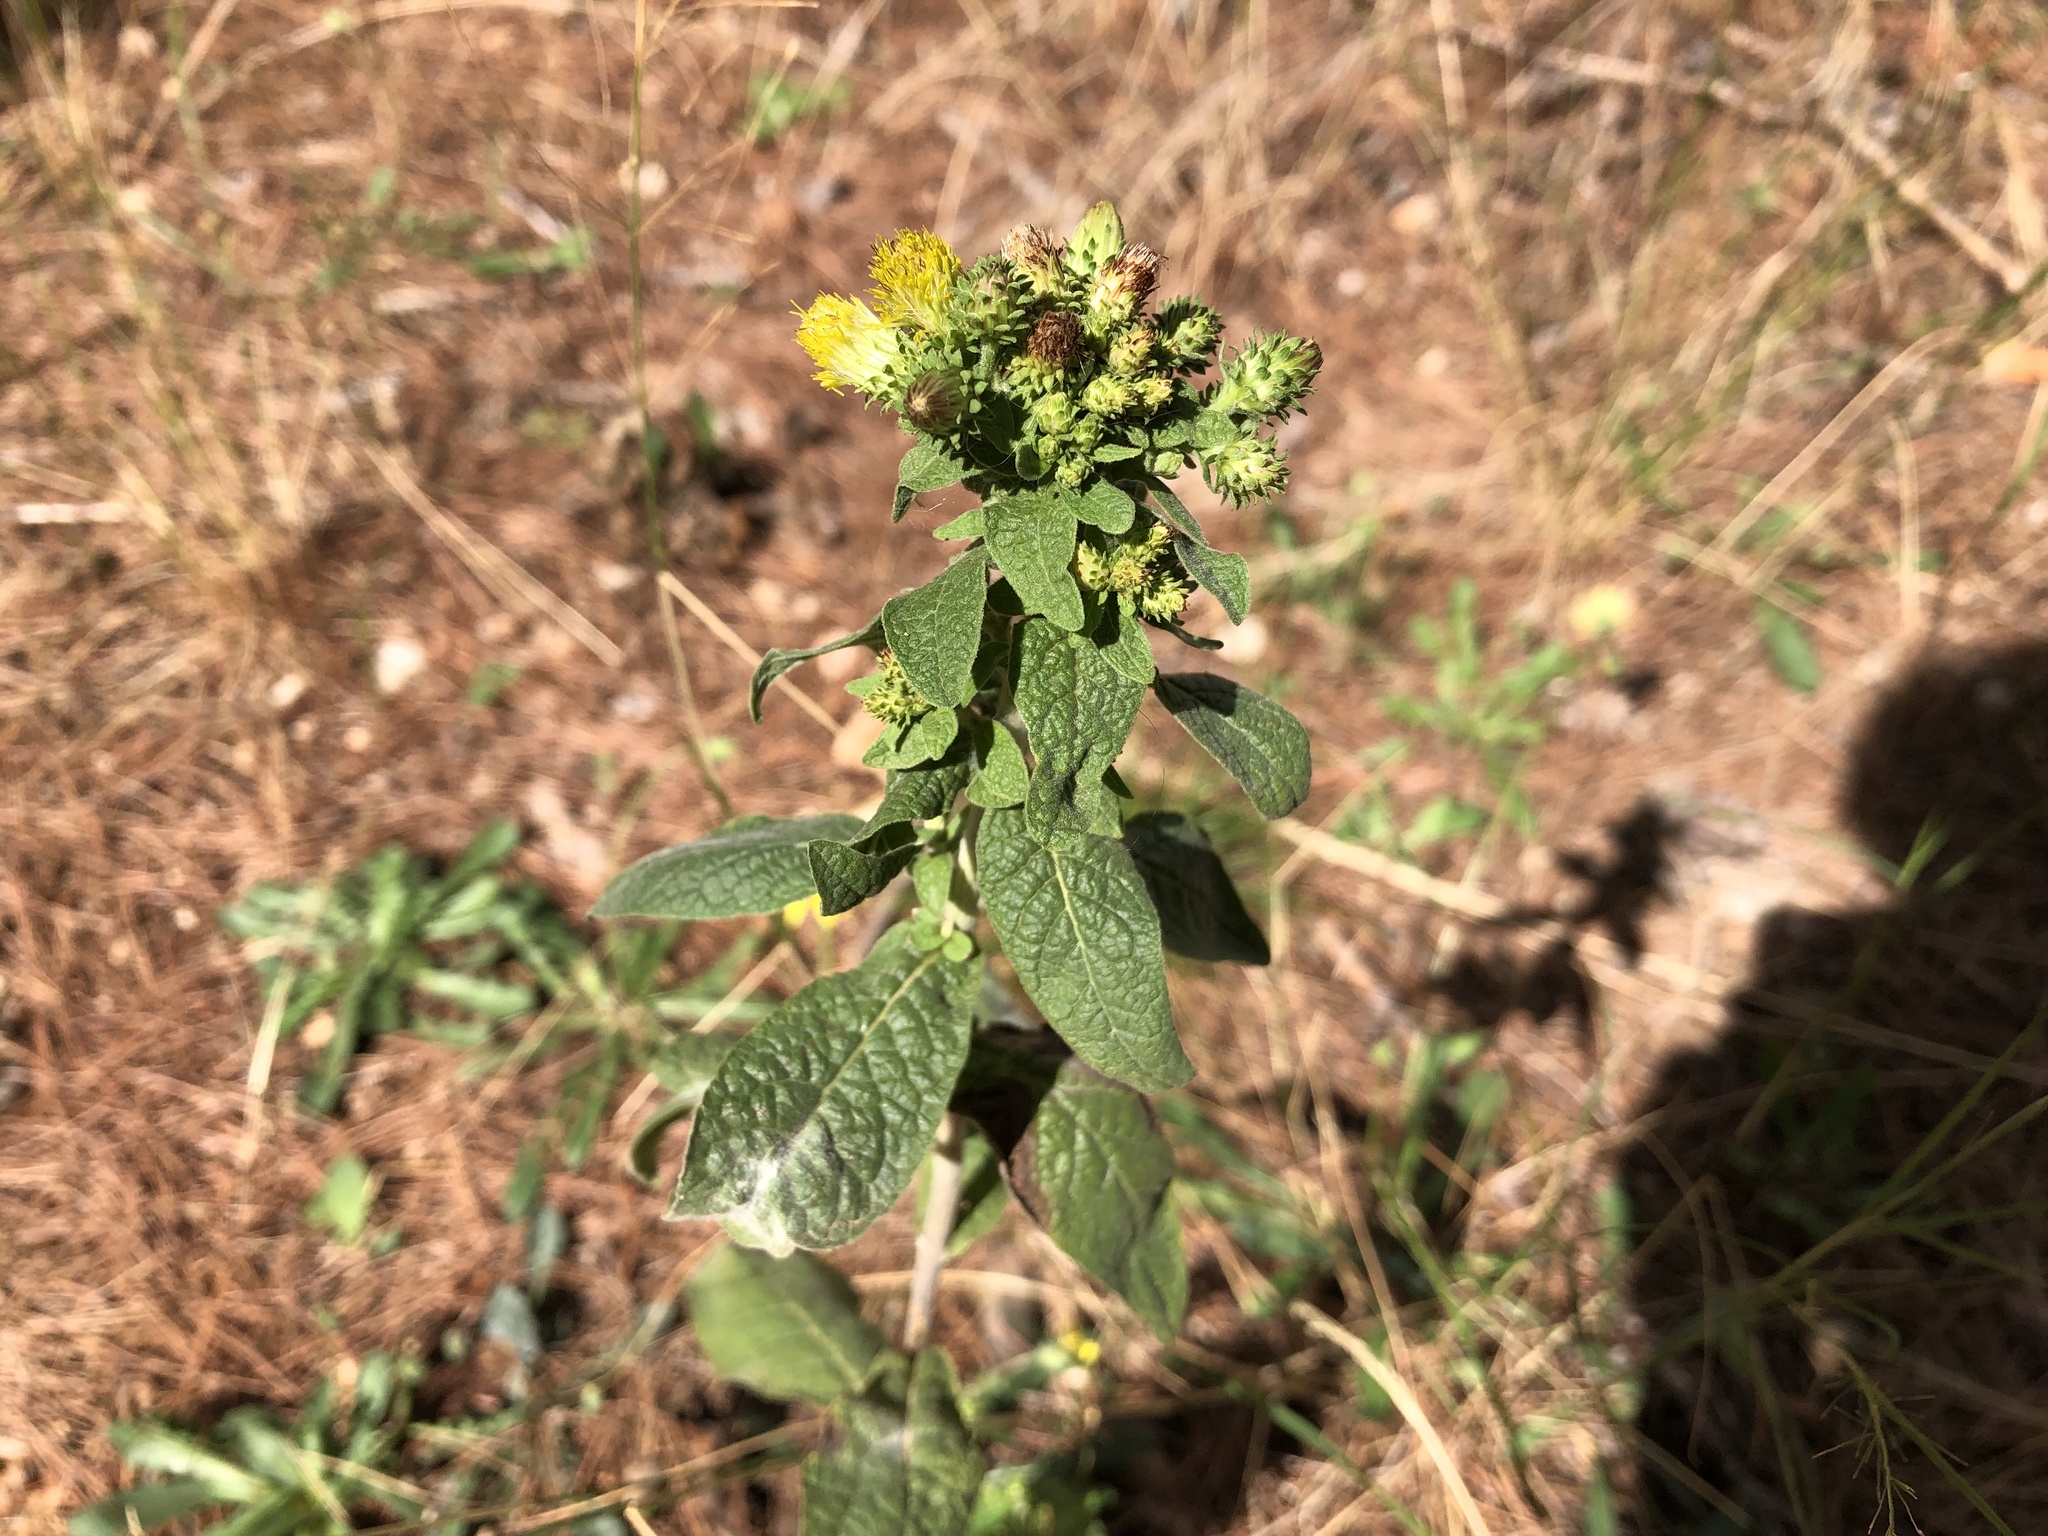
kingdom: Plantae
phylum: Tracheophyta
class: Magnoliopsida
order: Asterales
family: Asteraceae
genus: Pentanema
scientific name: Pentanema squarrosum
